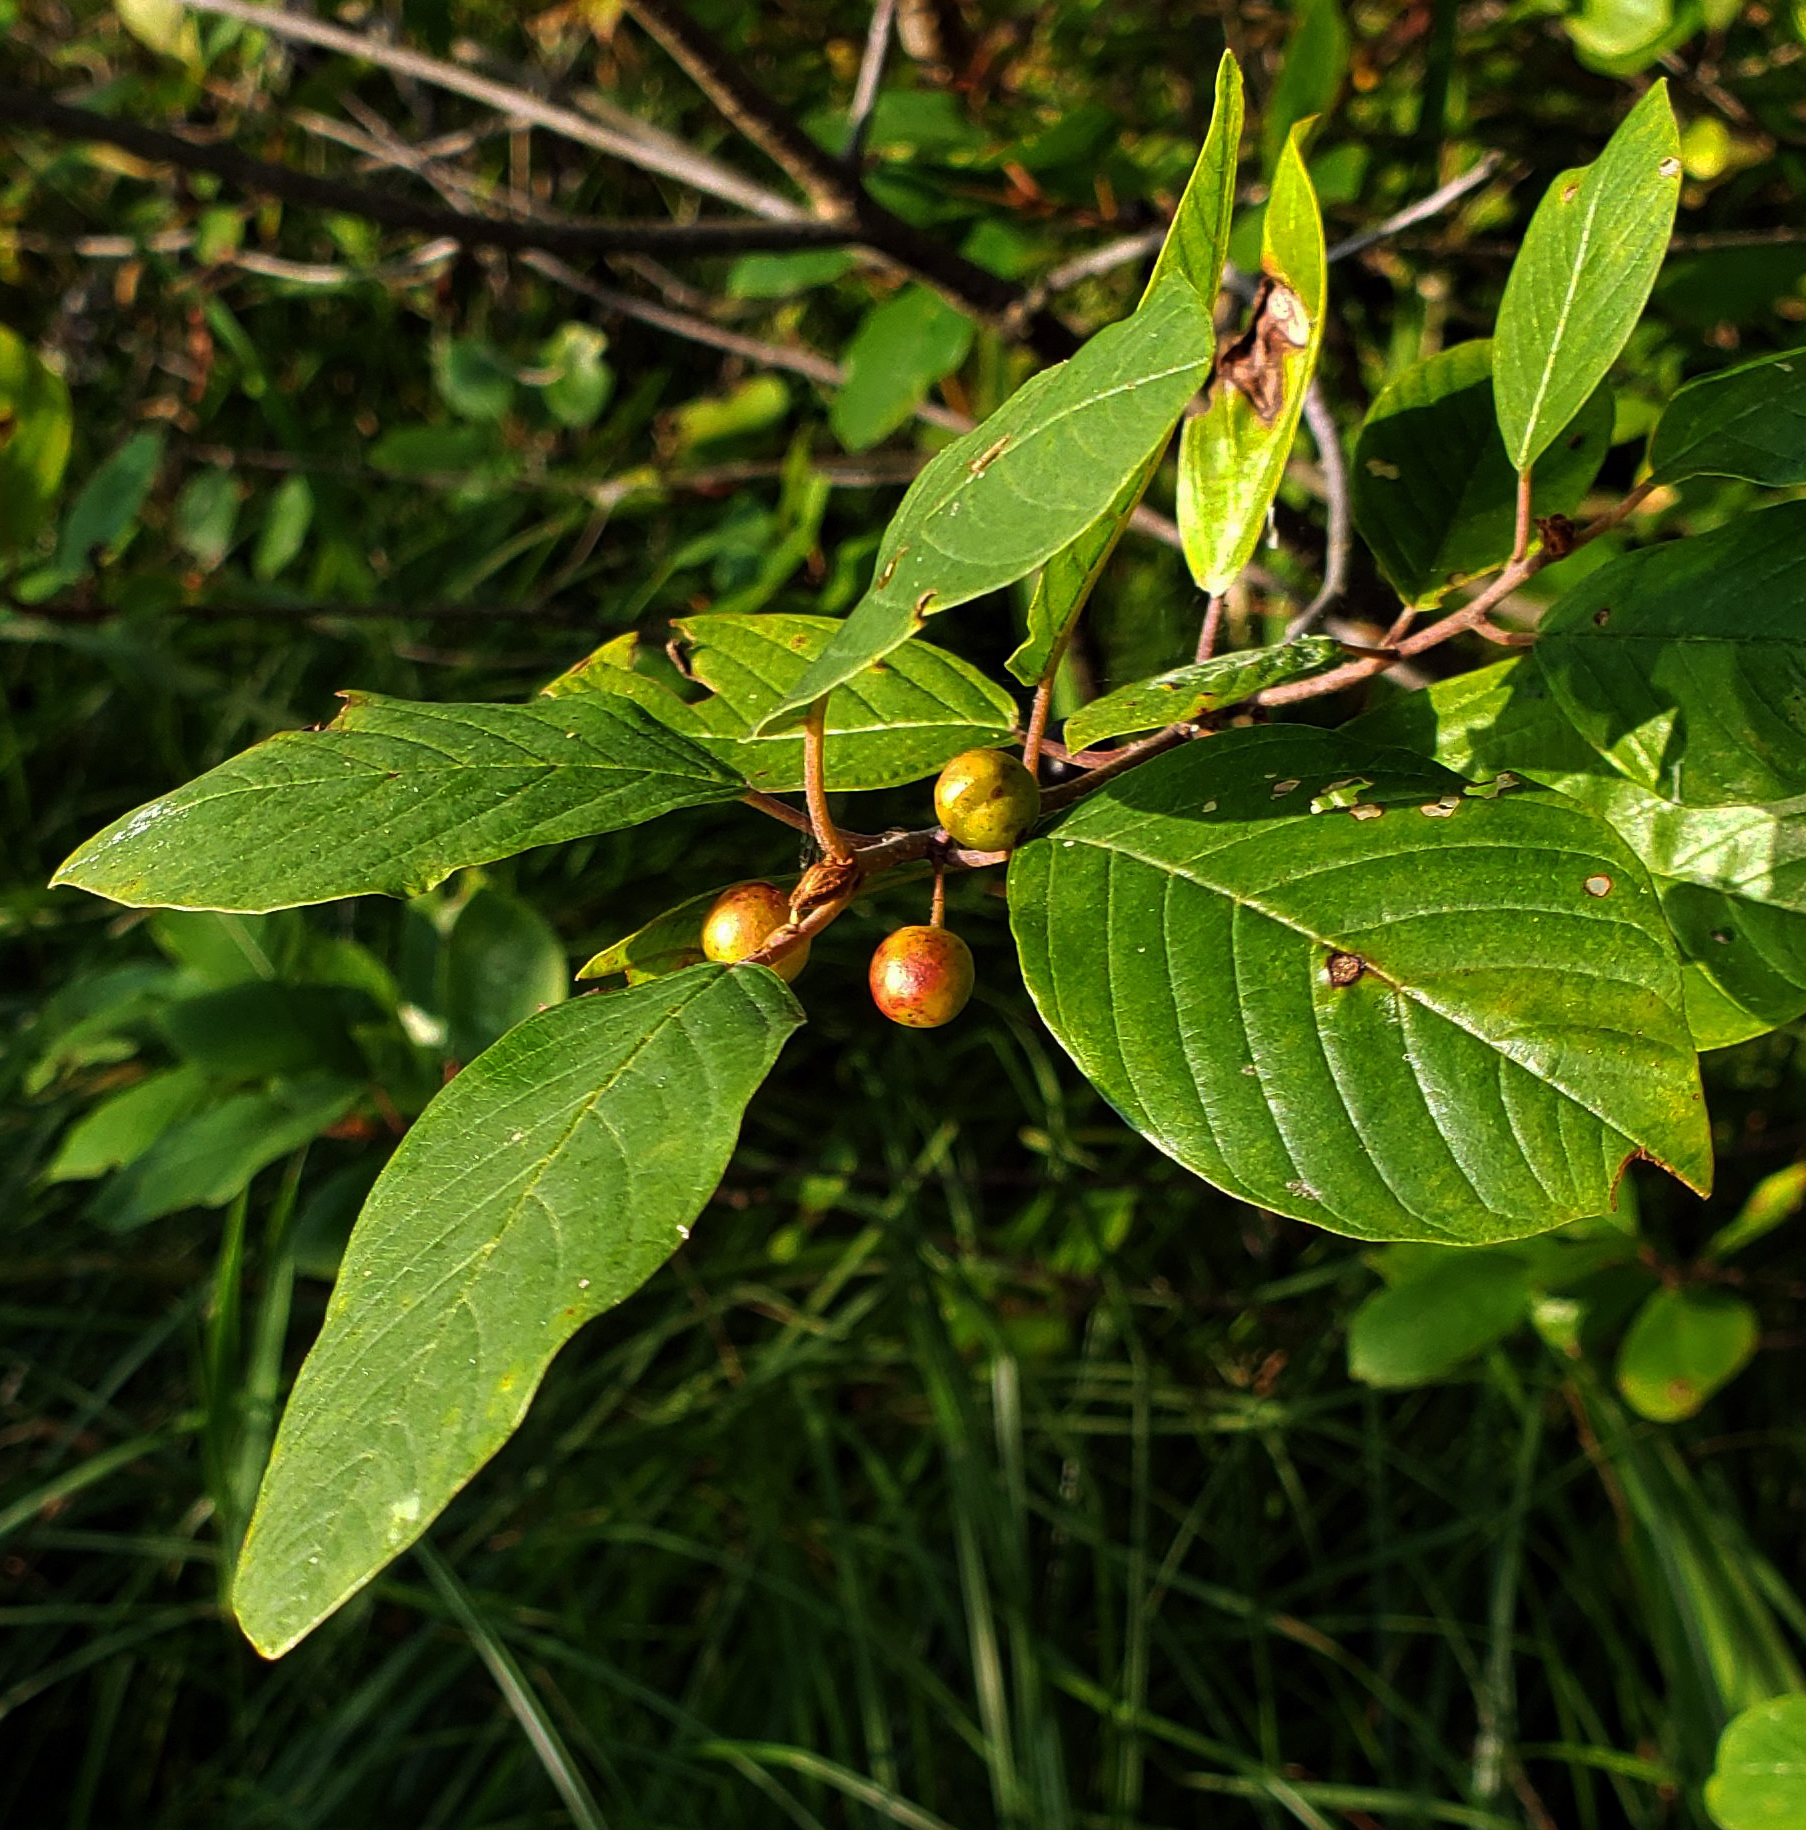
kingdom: Plantae
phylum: Tracheophyta
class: Magnoliopsida
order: Rosales
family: Rhamnaceae
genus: Frangula
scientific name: Frangula alnus
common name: Alder buckthorn
